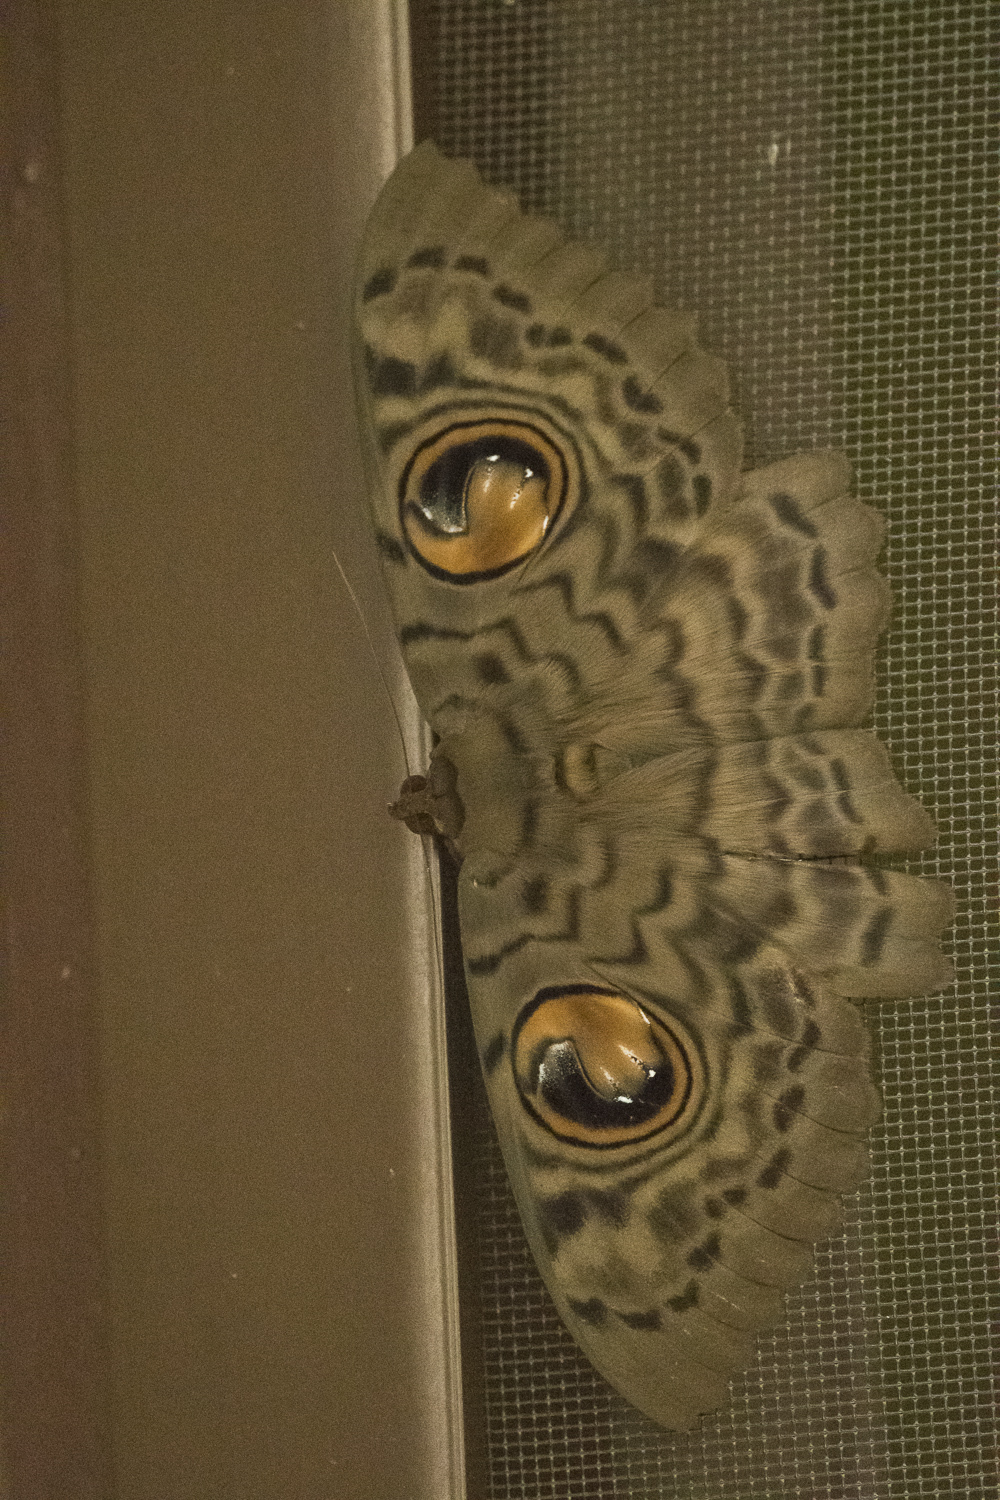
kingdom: Animalia
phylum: Arthropoda
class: Insecta
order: Lepidoptera
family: Erebidae
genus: Erebus
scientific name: Erebus macrops
